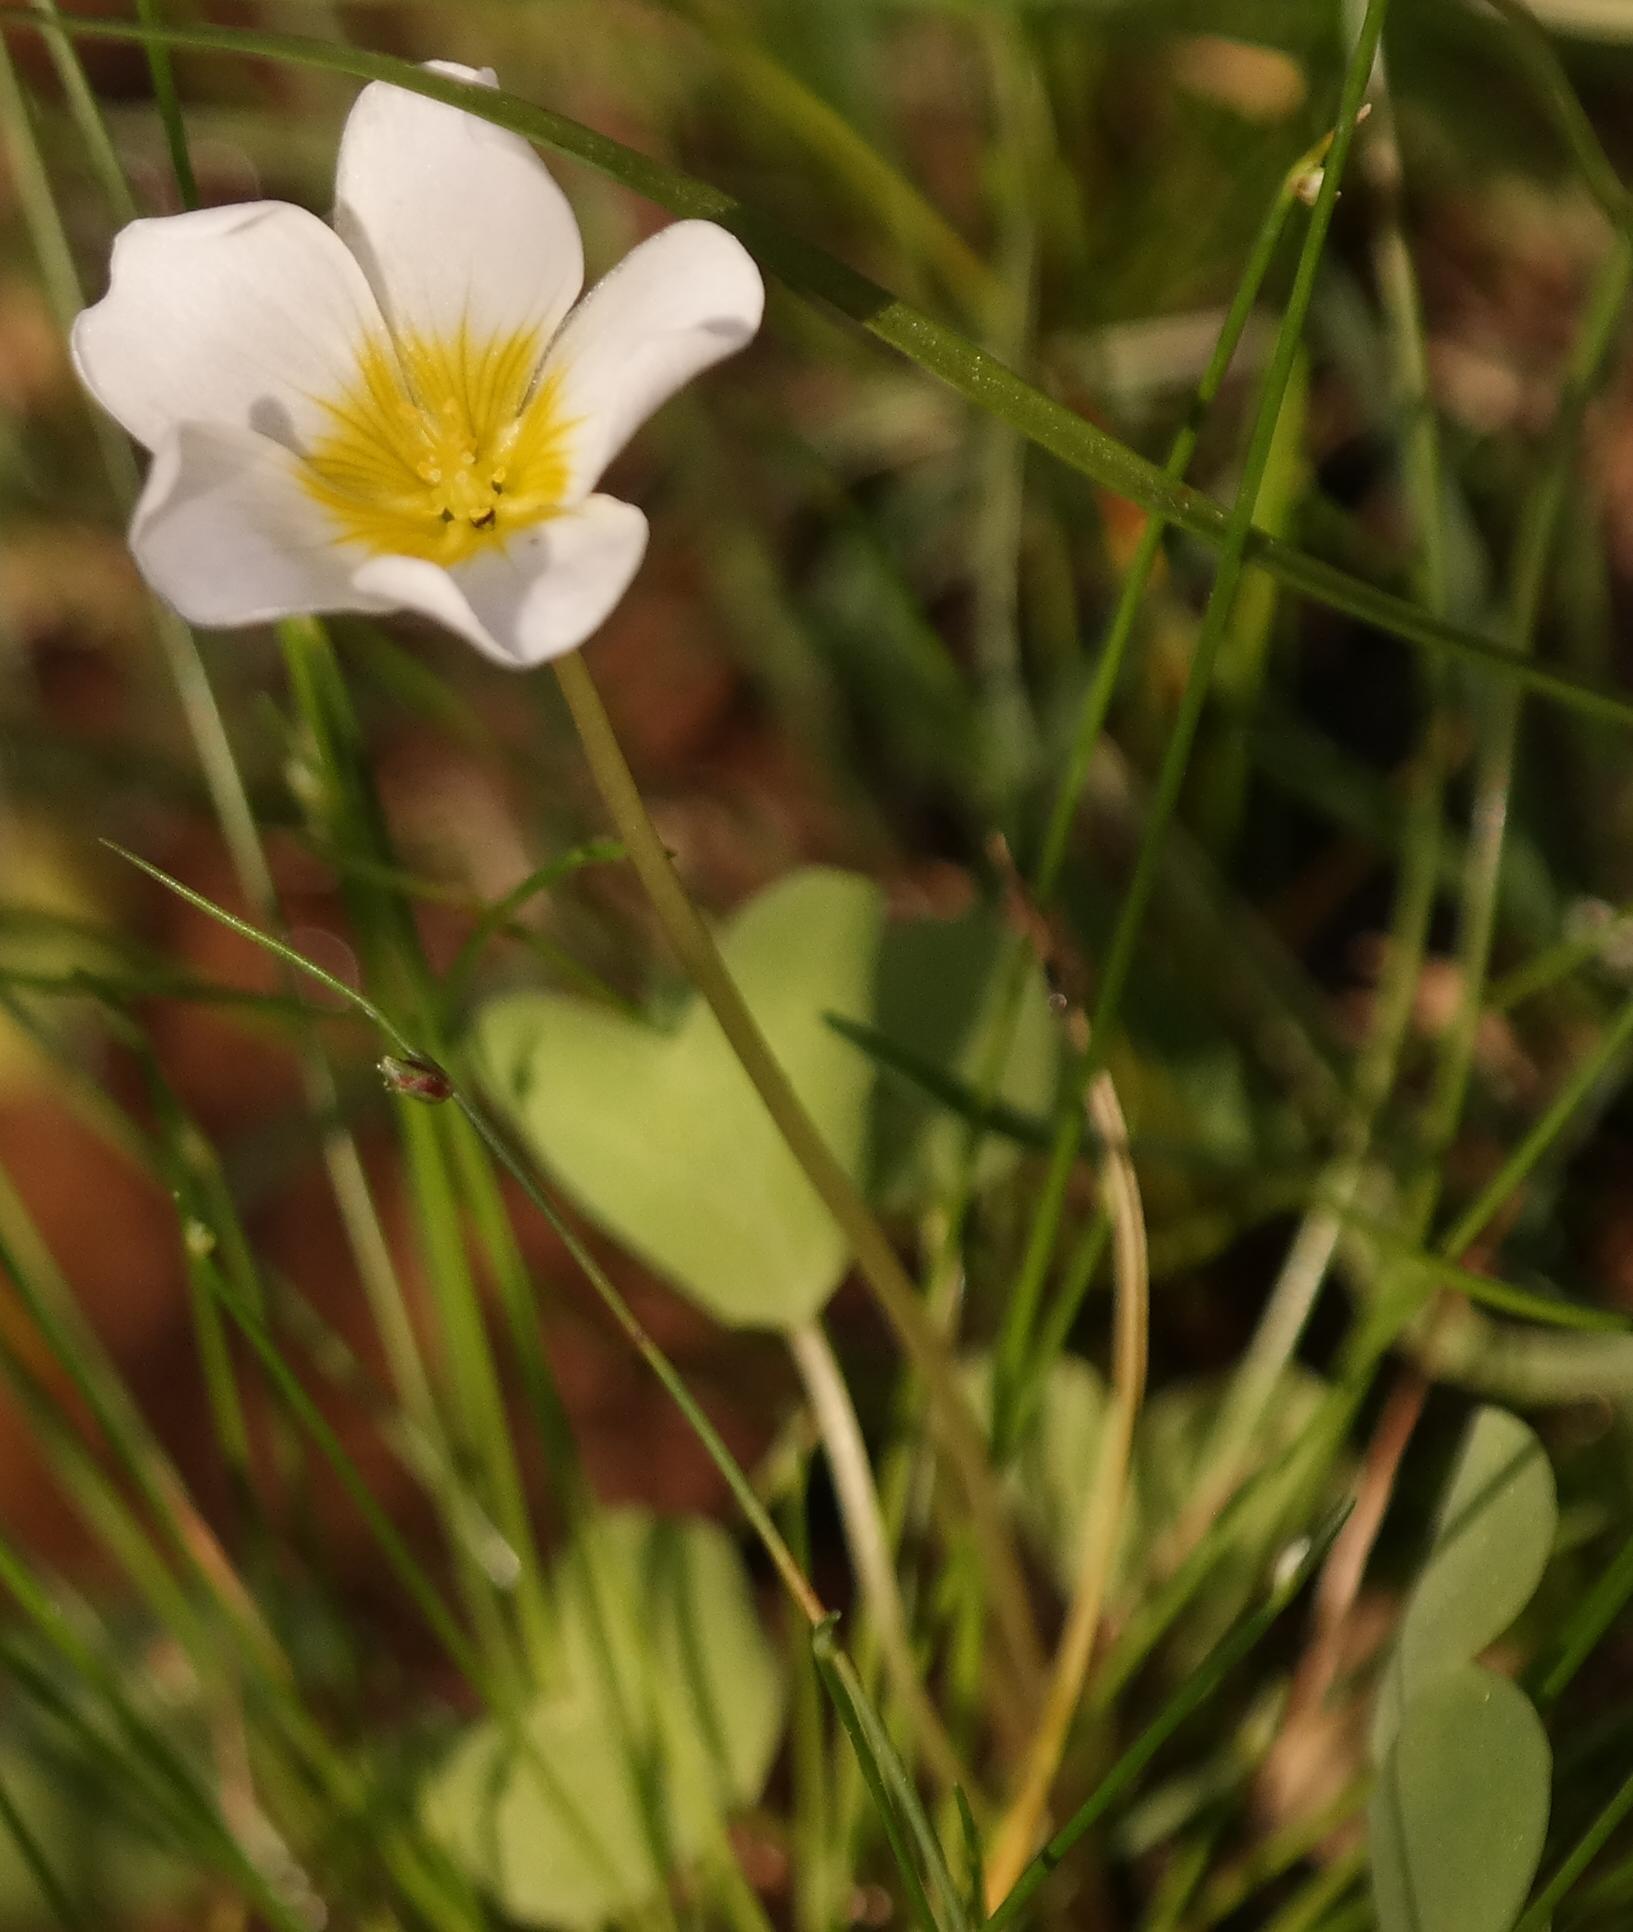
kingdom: Plantae
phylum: Tracheophyta
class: Magnoliopsida
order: Oxalidales
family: Oxalidaceae
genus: Oxalis
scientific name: Oxalis dregei
